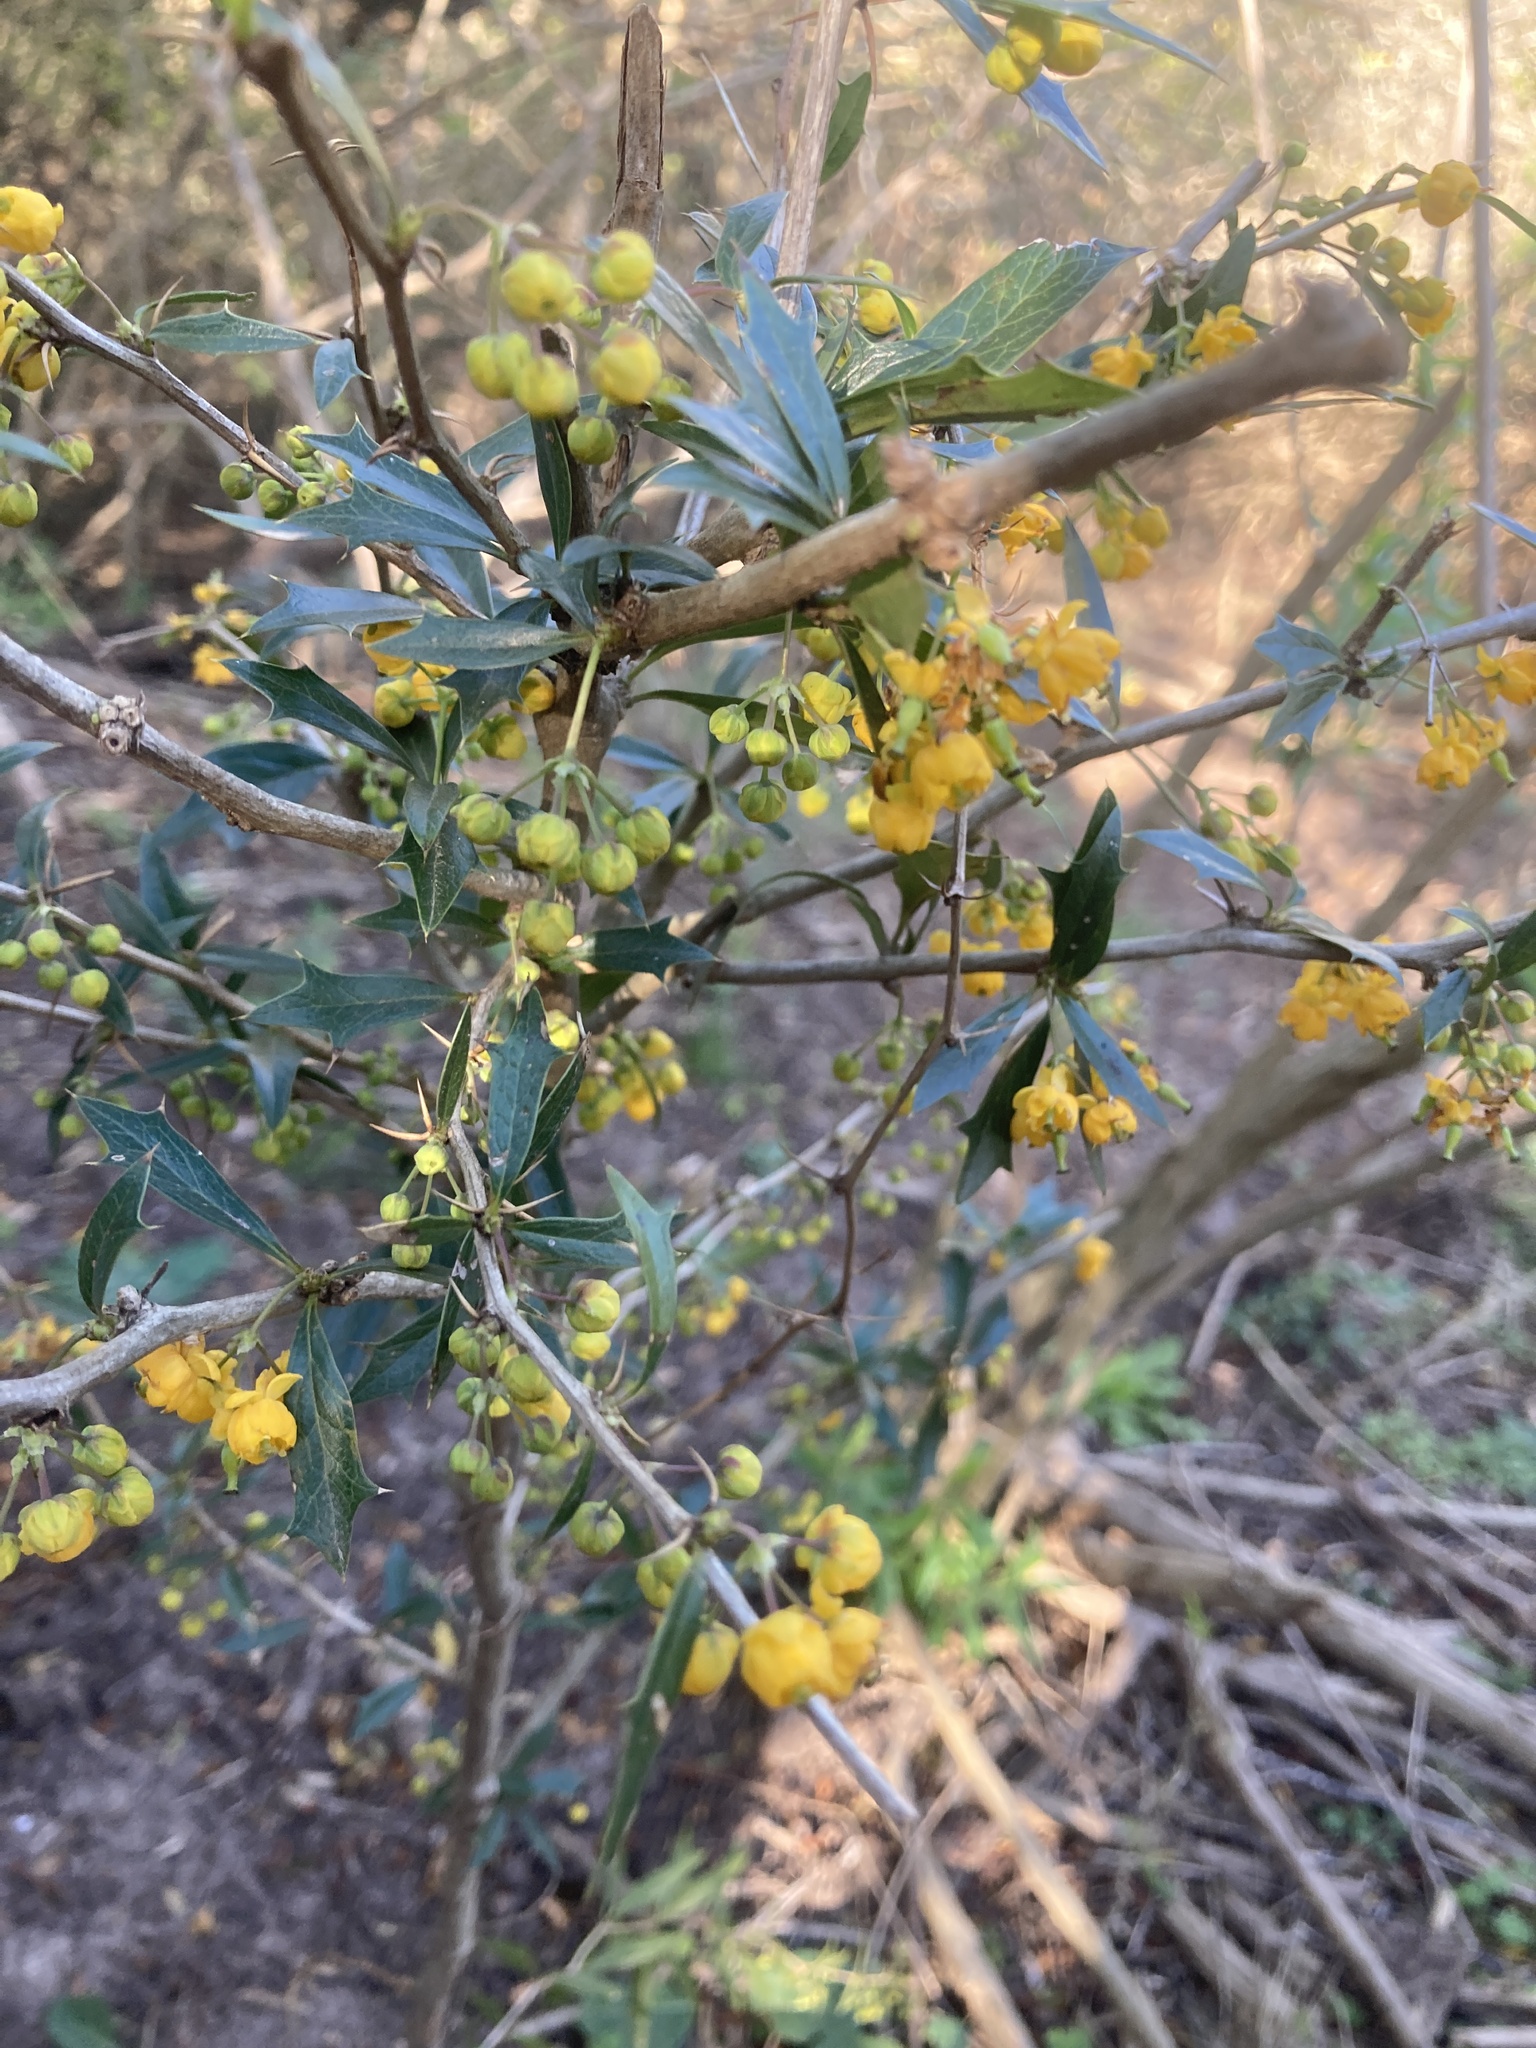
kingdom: Plantae
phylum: Tracheophyta
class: Magnoliopsida
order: Ranunculales
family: Berberidaceae
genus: Berberis
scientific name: Berberis ruscifolia
